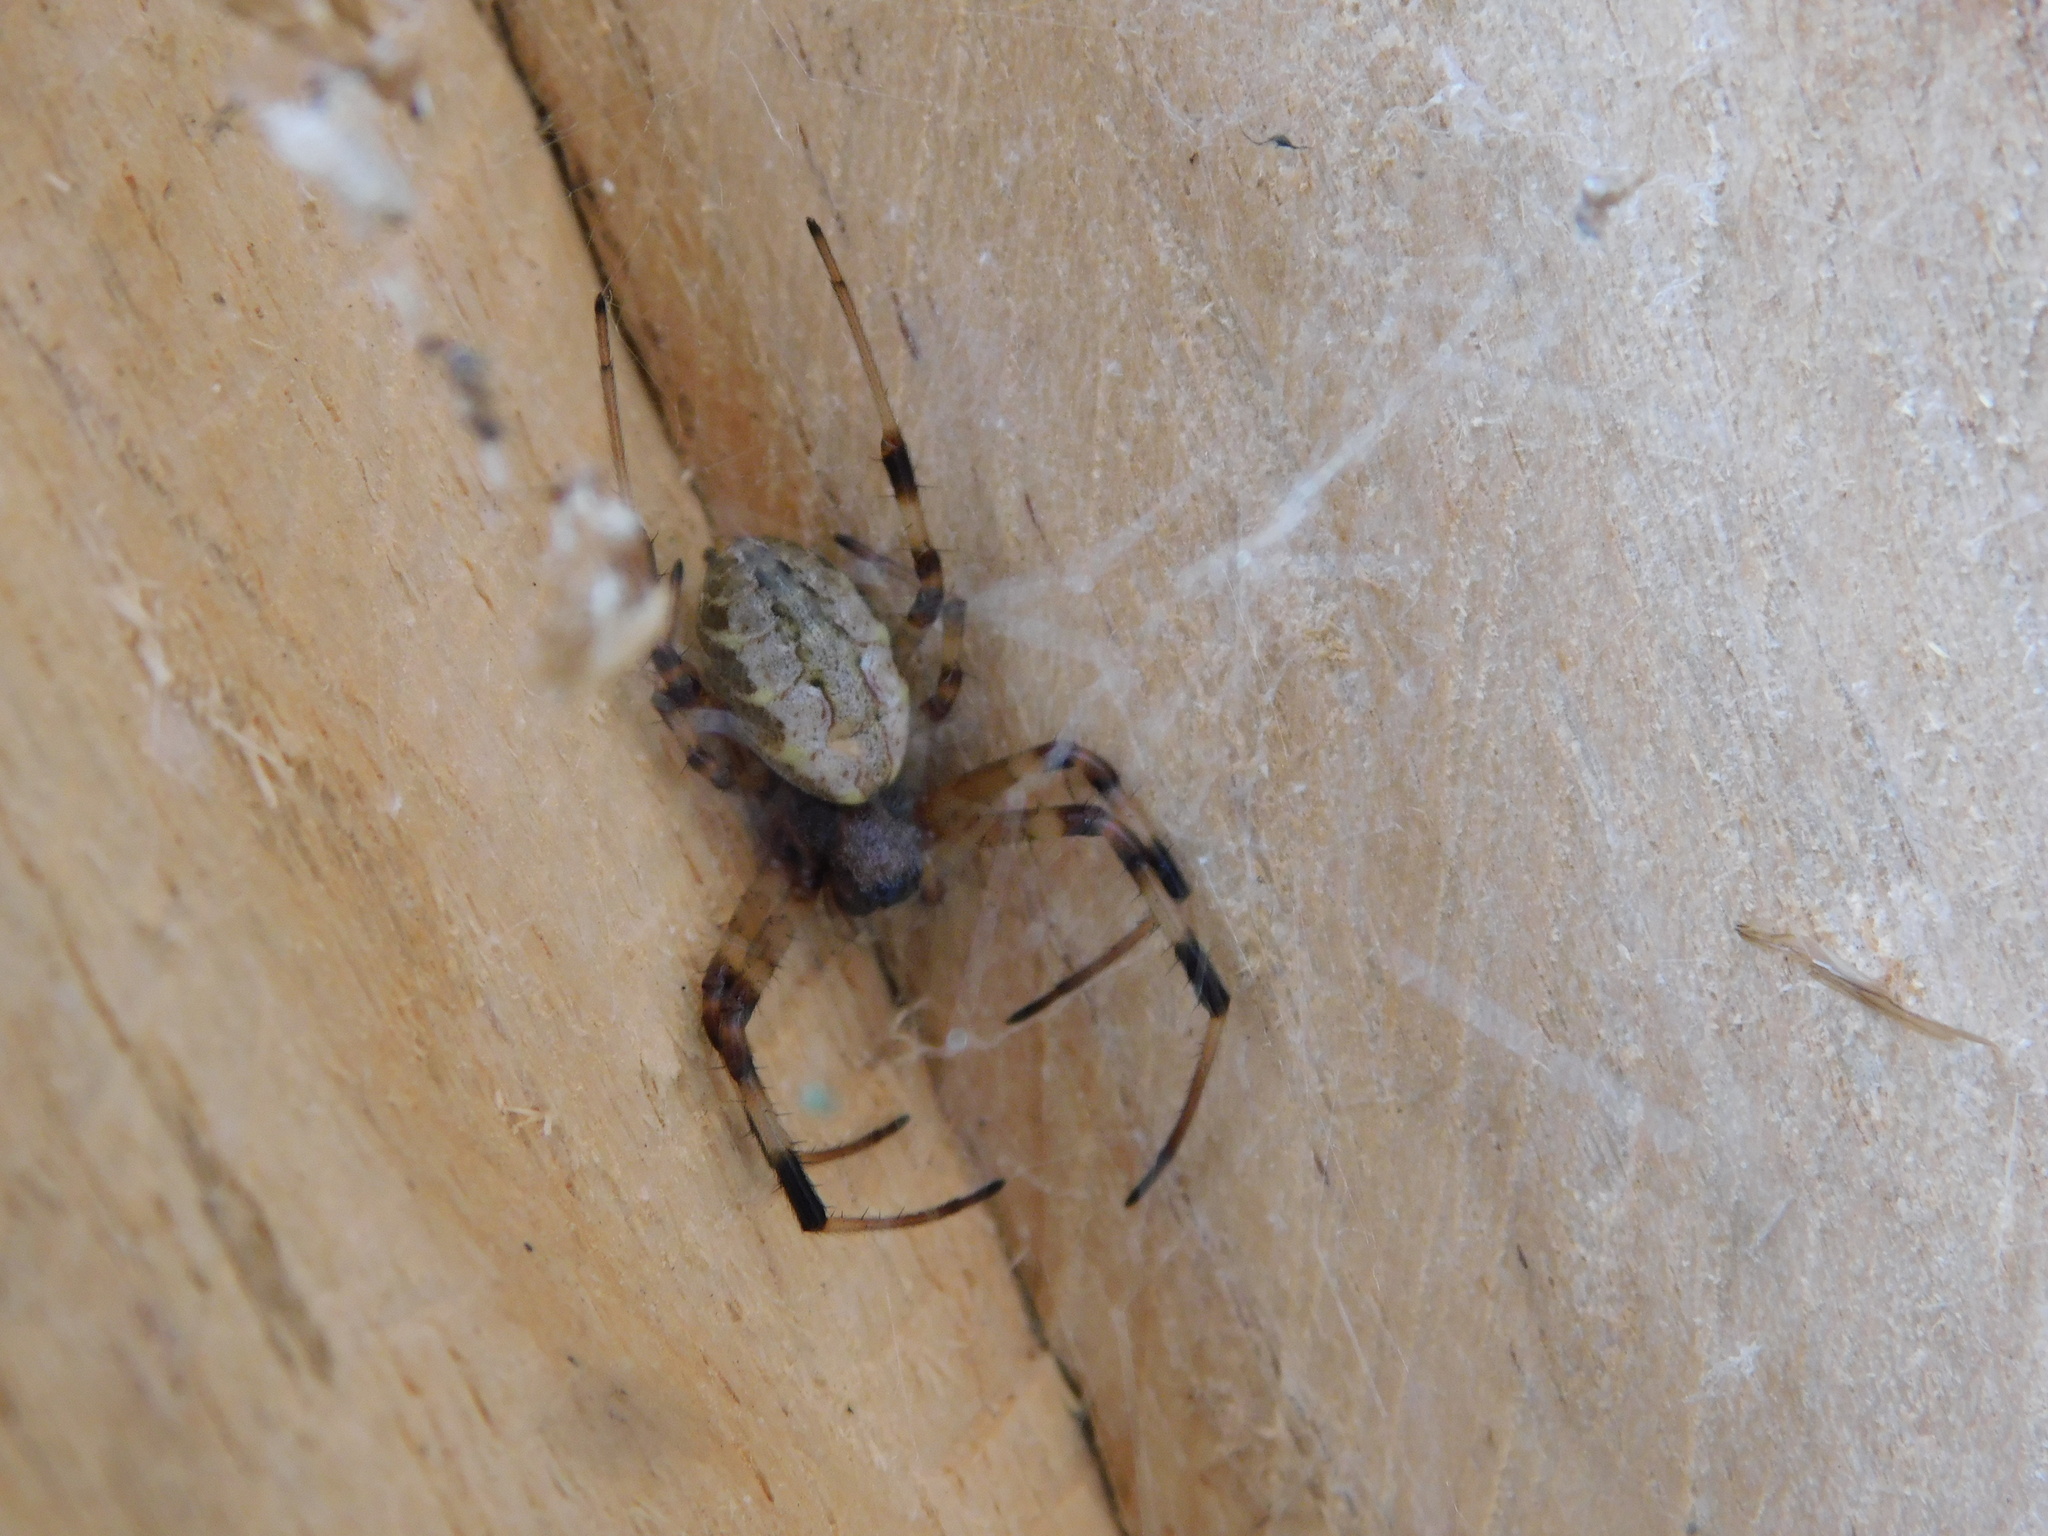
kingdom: Animalia
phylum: Arthropoda
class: Arachnida
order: Araneae
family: Araneidae
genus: Nephilengys
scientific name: Nephilengys malabarensis
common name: Asian hermit spider
